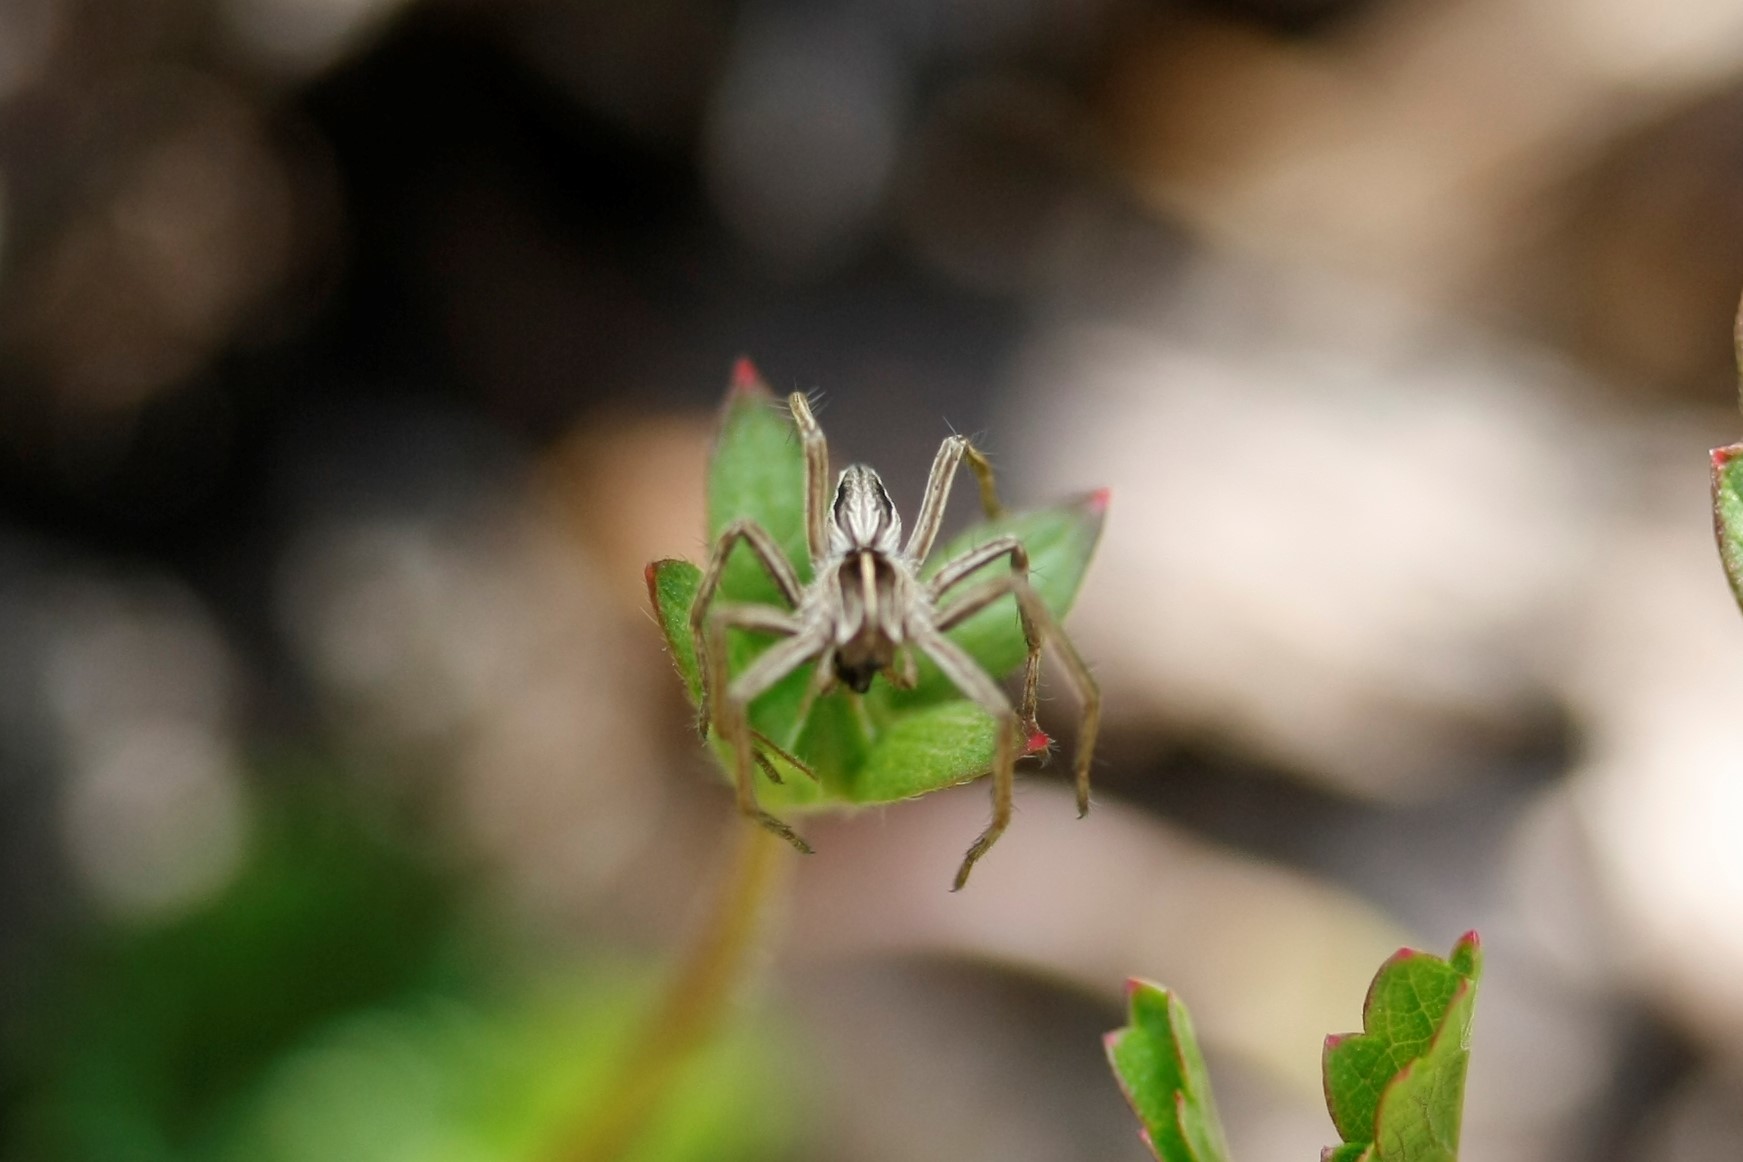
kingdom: Animalia
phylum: Arthropoda
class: Arachnida
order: Araneae
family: Pisauridae
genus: Pisaura
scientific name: Pisaura mirabilis
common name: Tent spider
